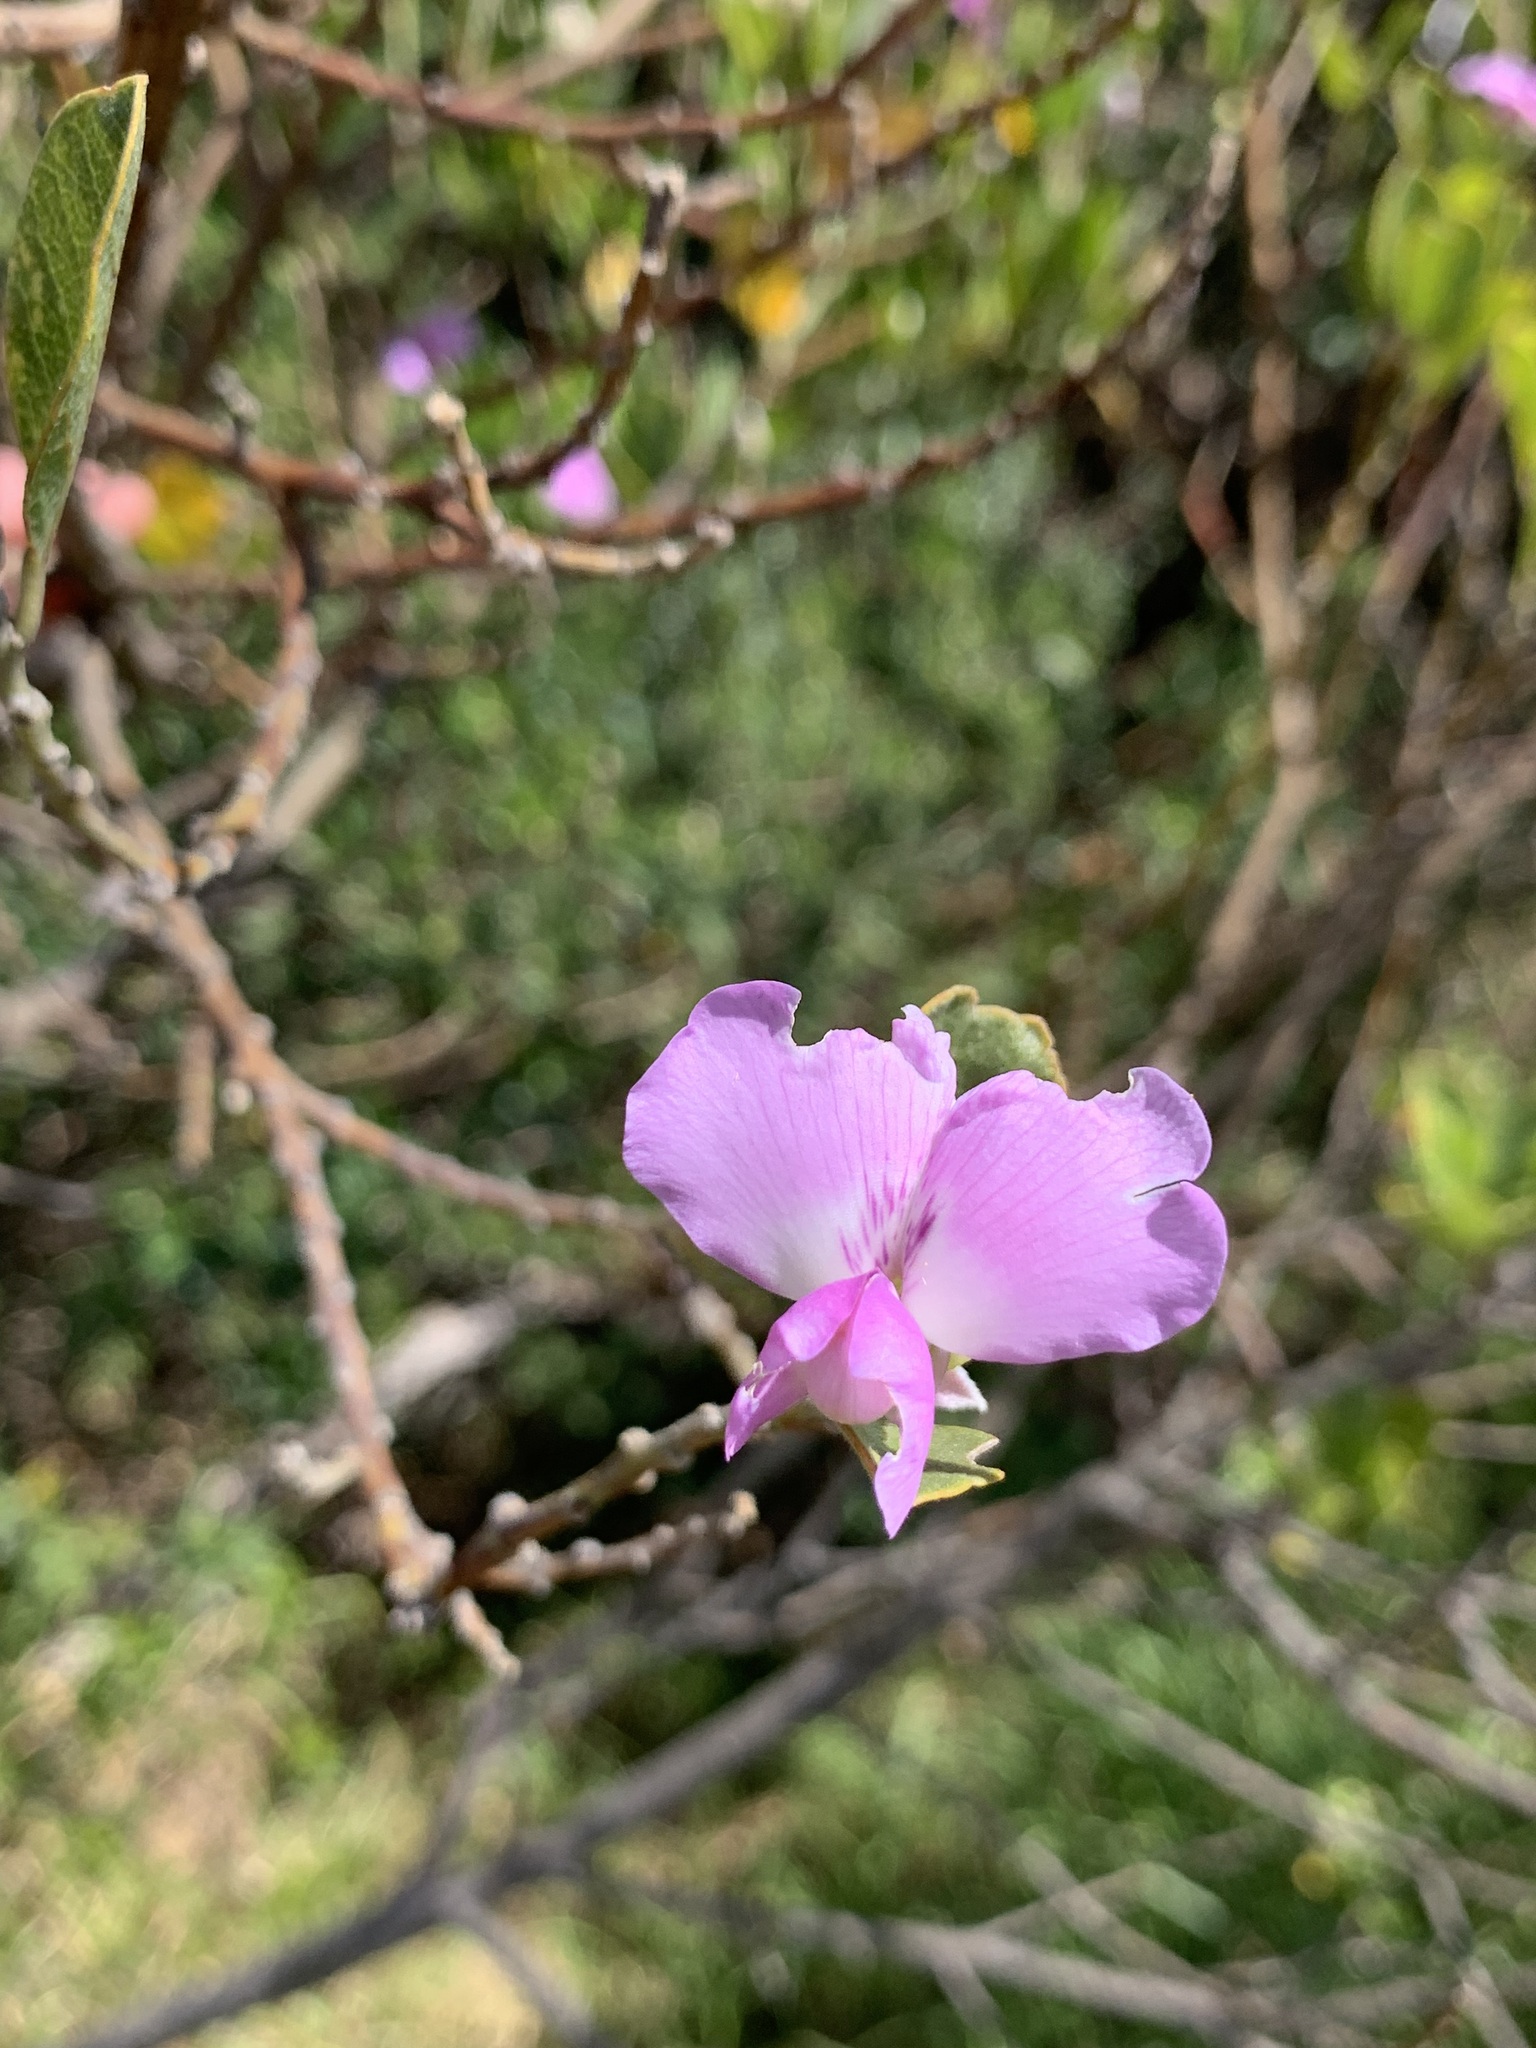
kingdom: Plantae
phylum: Tracheophyta
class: Magnoliopsida
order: Fabales
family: Fabaceae
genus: Podalyria
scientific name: Podalyria calyptrata
